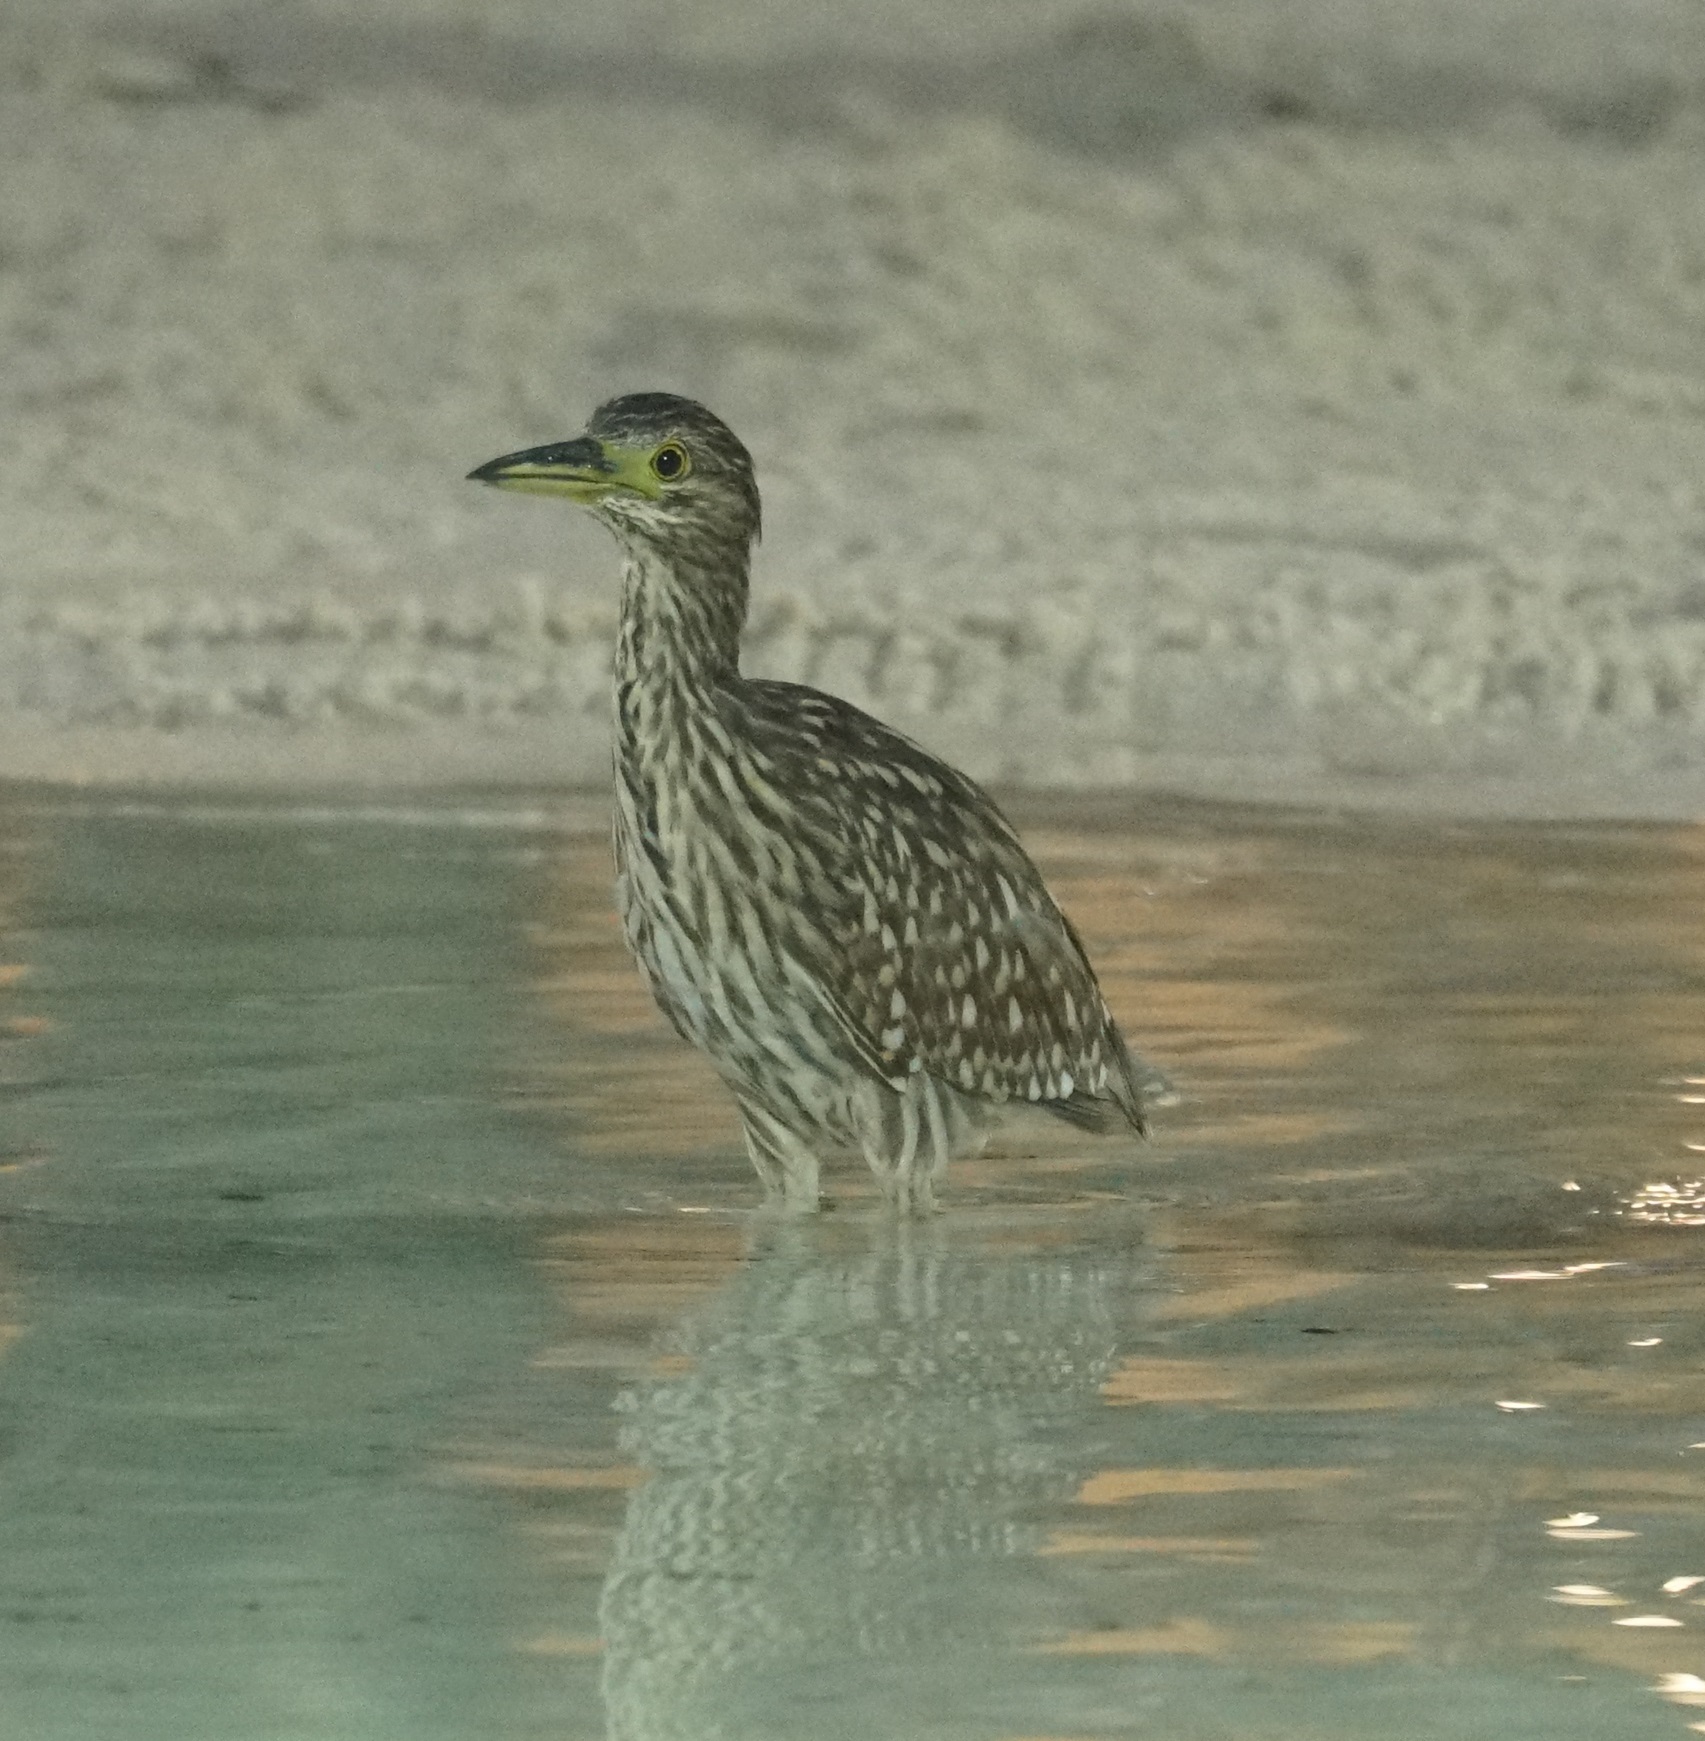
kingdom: Animalia
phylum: Chordata
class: Aves
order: Pelecaniformes
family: Ardeidae
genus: Nycticorax
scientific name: Nycticorax caledonicus
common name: Rufous night-heron
